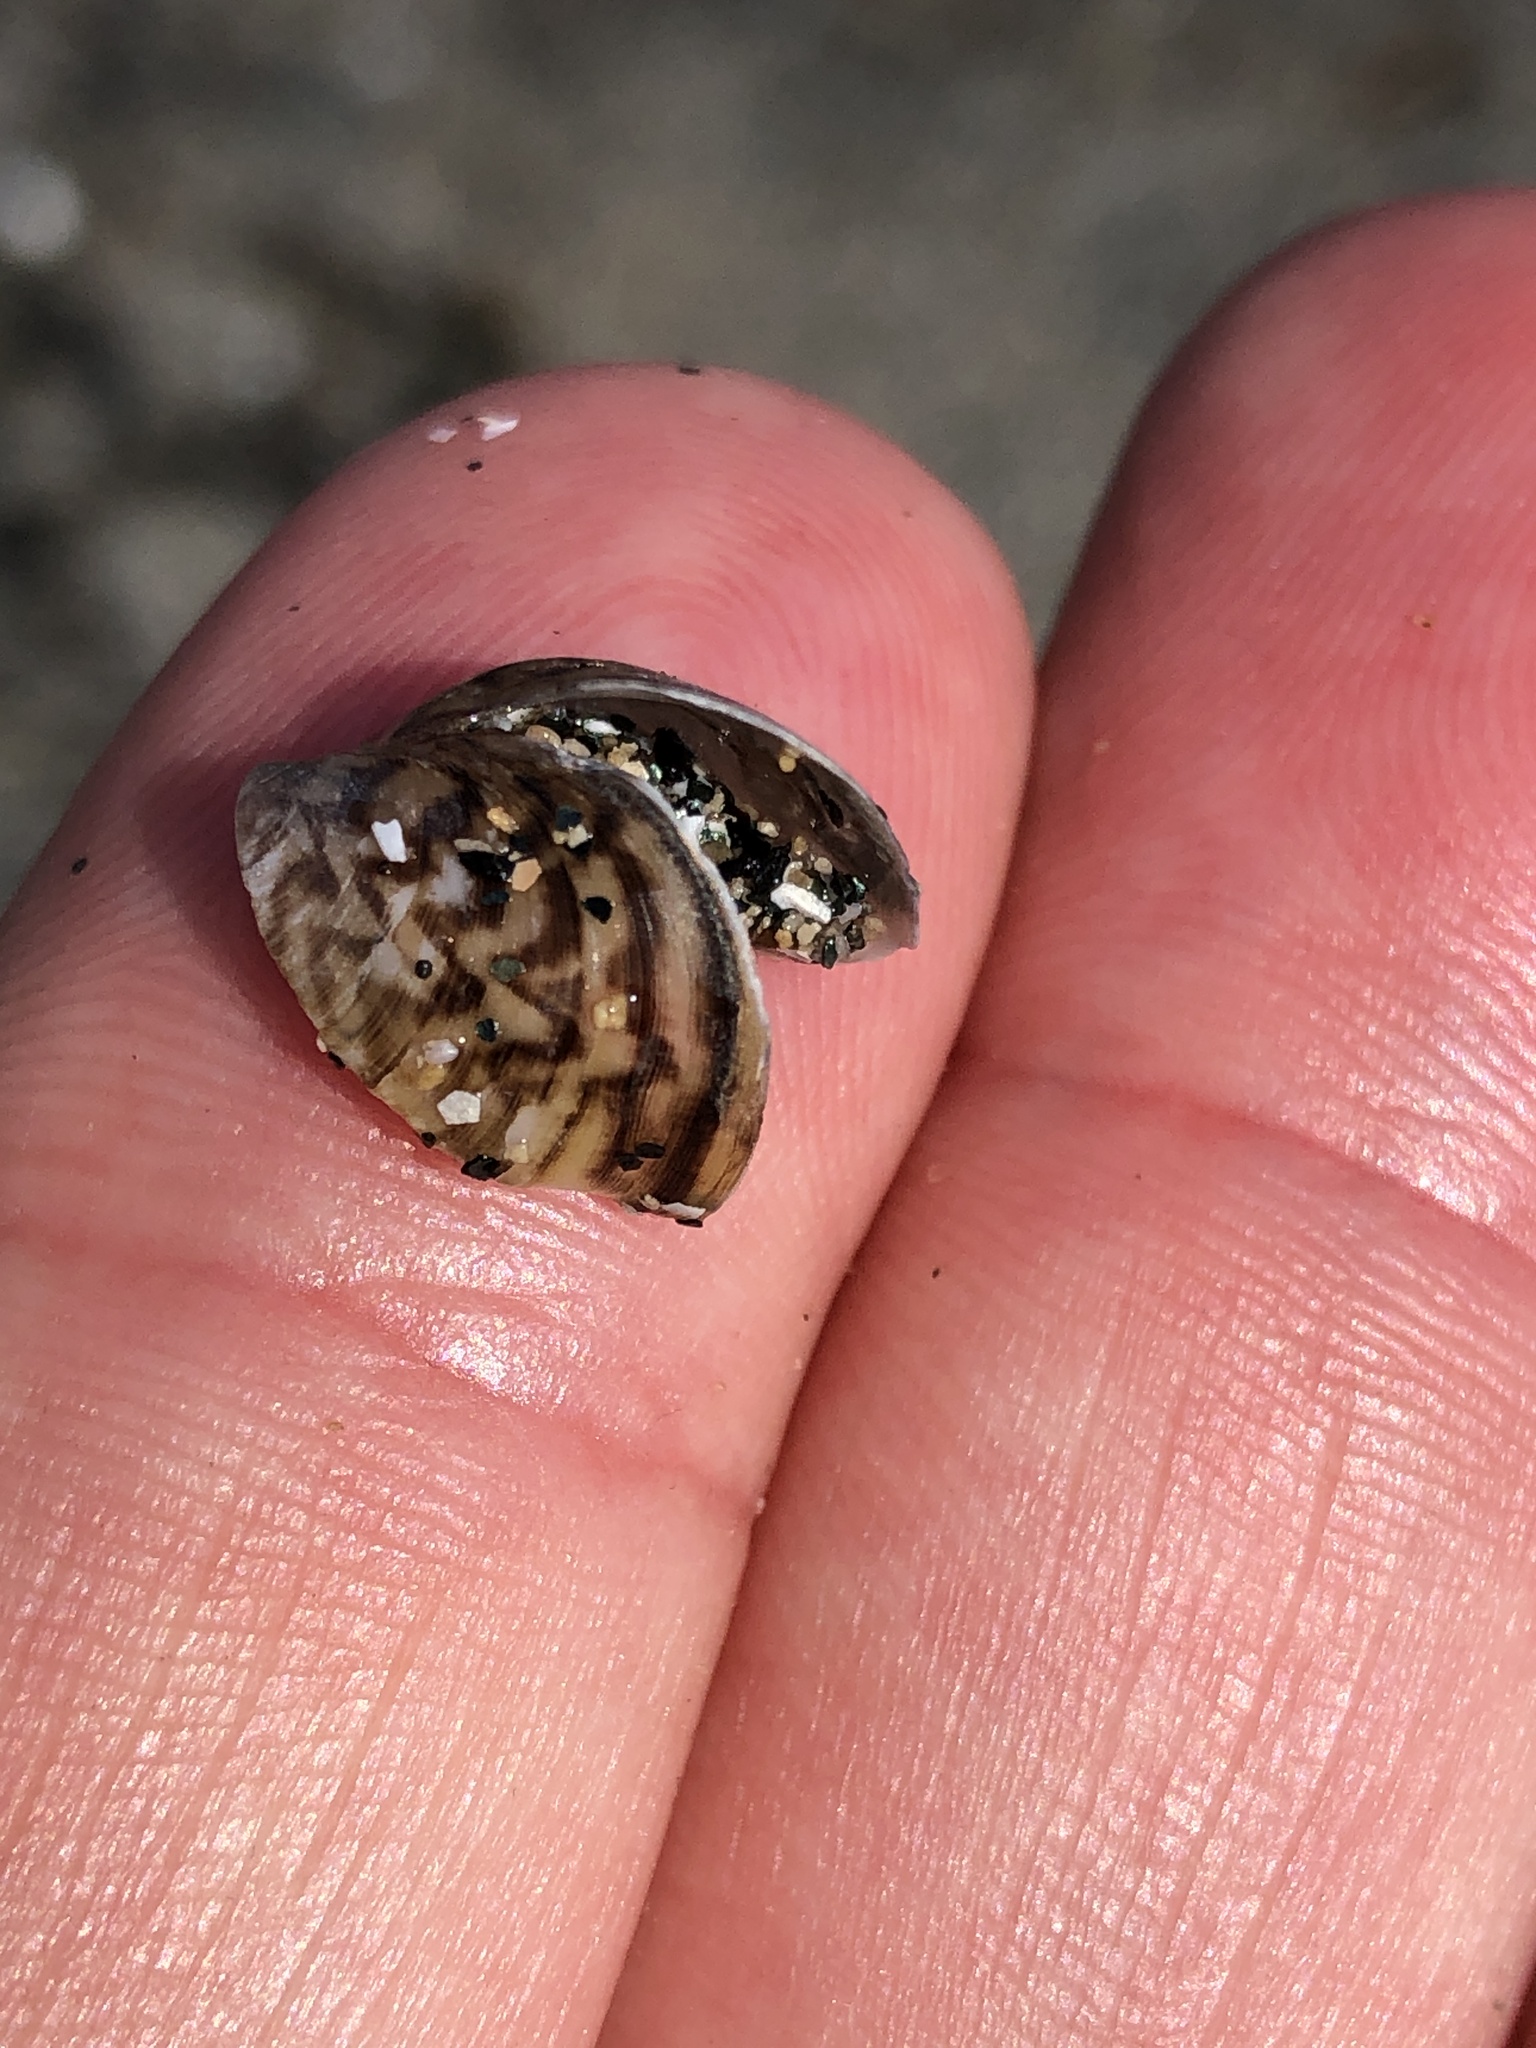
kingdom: Animalia
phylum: Mollusca
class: Bivalvia
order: Myida
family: Dreissenidae
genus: Dreissena
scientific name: Dreissena polymorpha
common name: Zebra mussel
